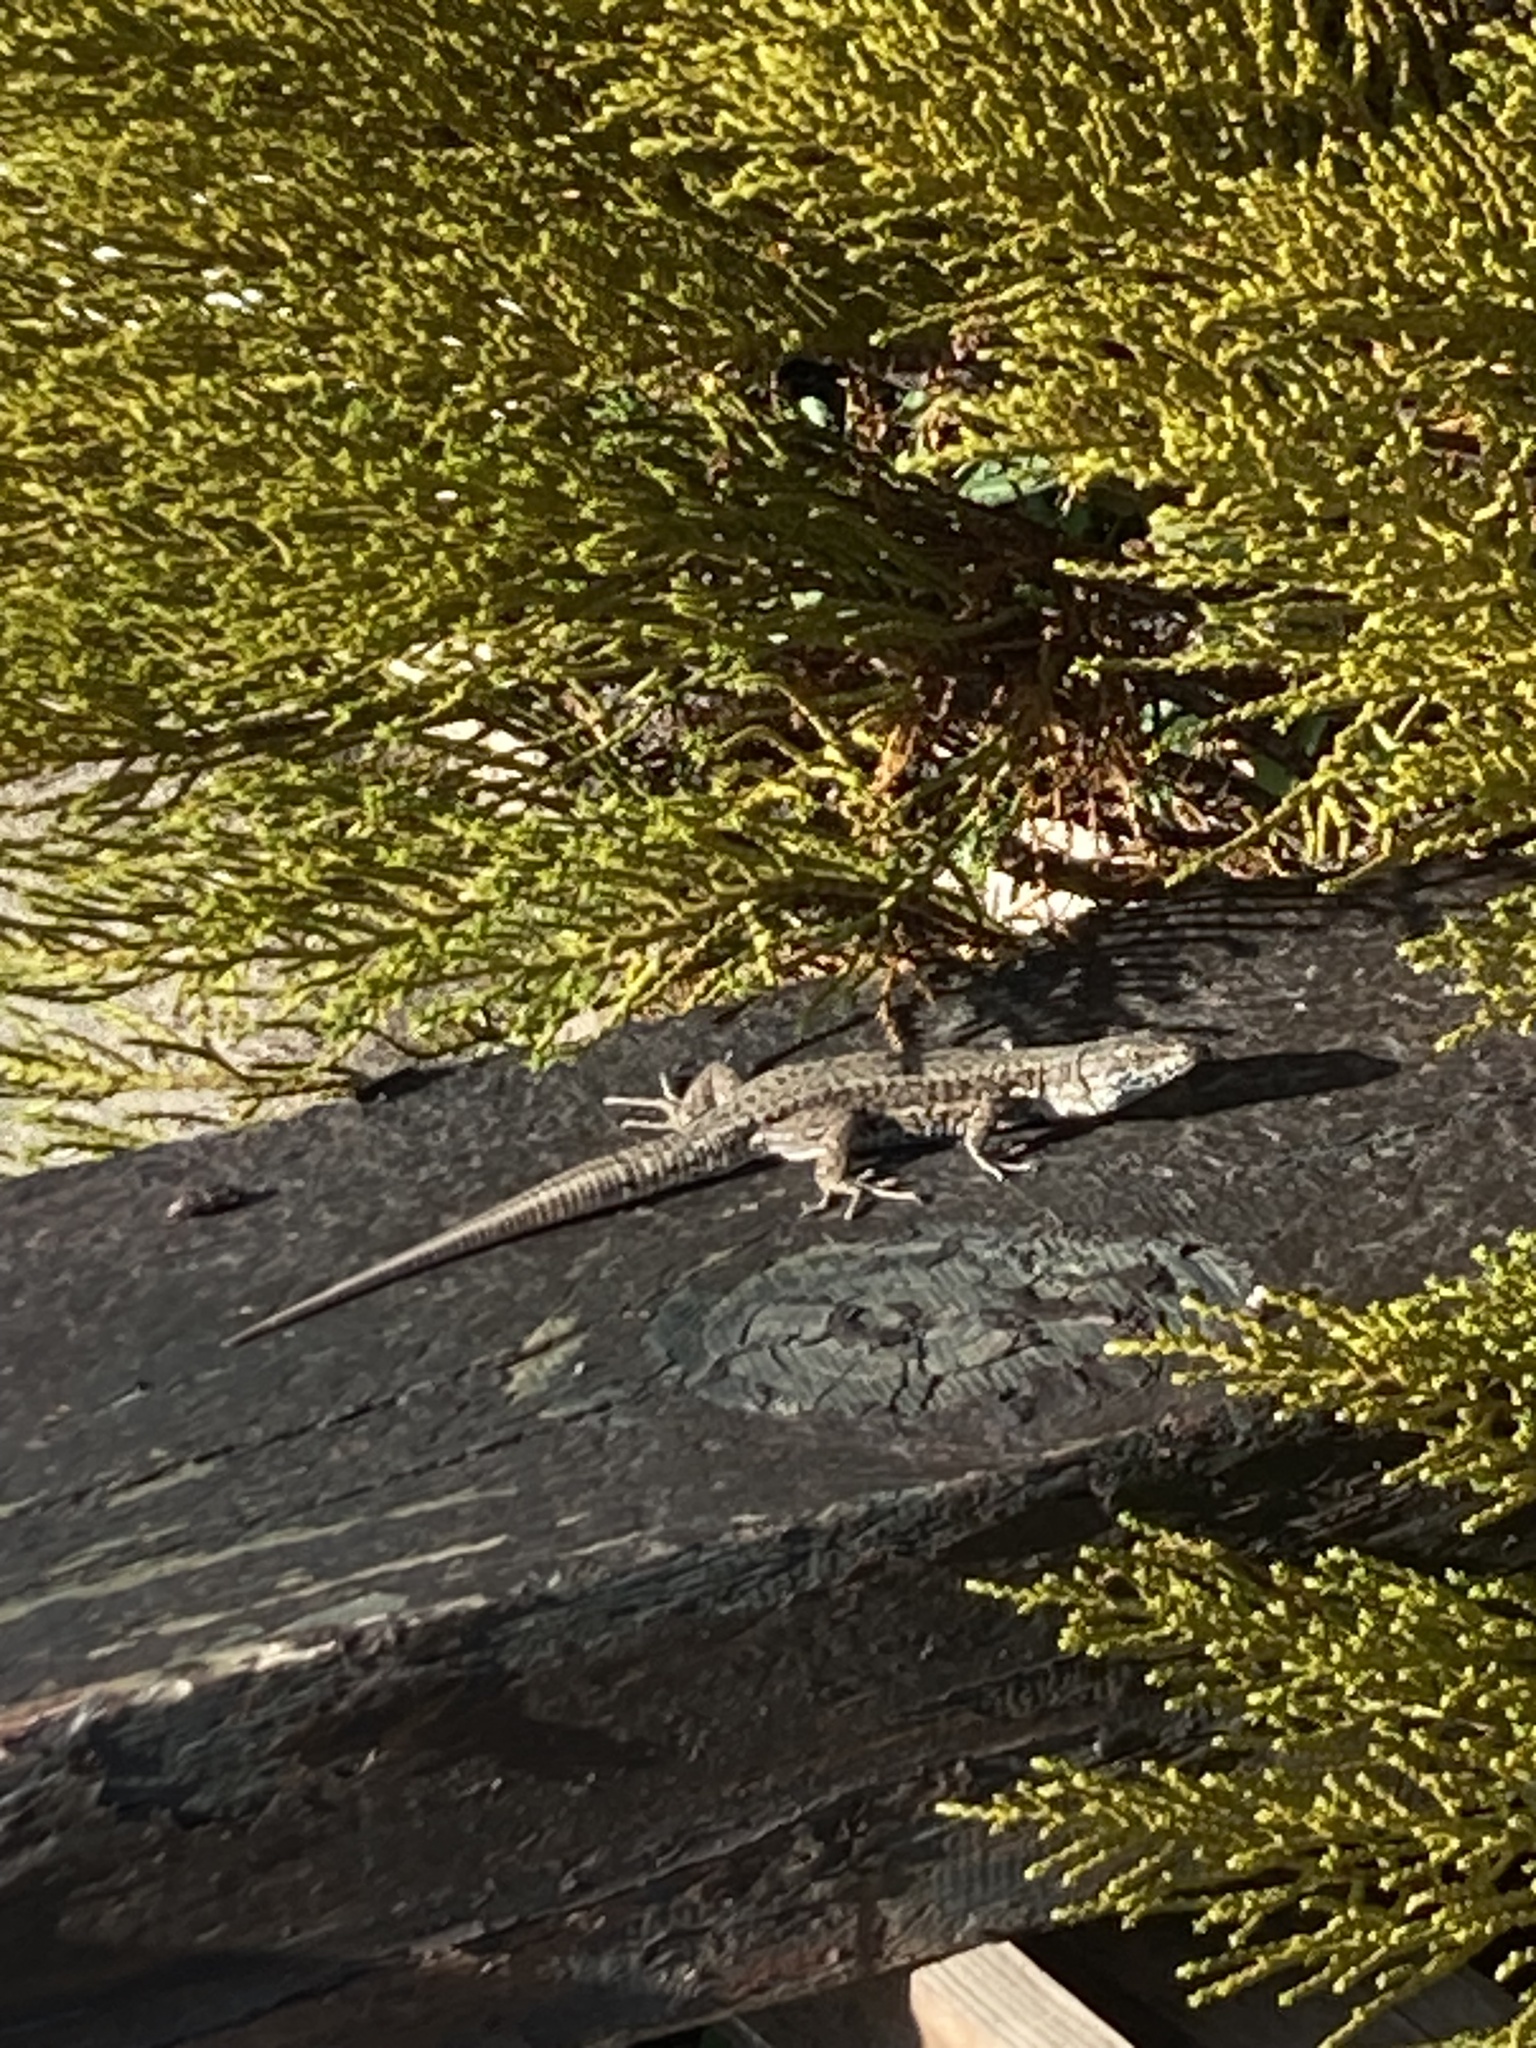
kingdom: Animalia
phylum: Chordata
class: Squamata
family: Lacertidae
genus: Podarcis
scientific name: Podarcis muralis
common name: Common wall lizard
